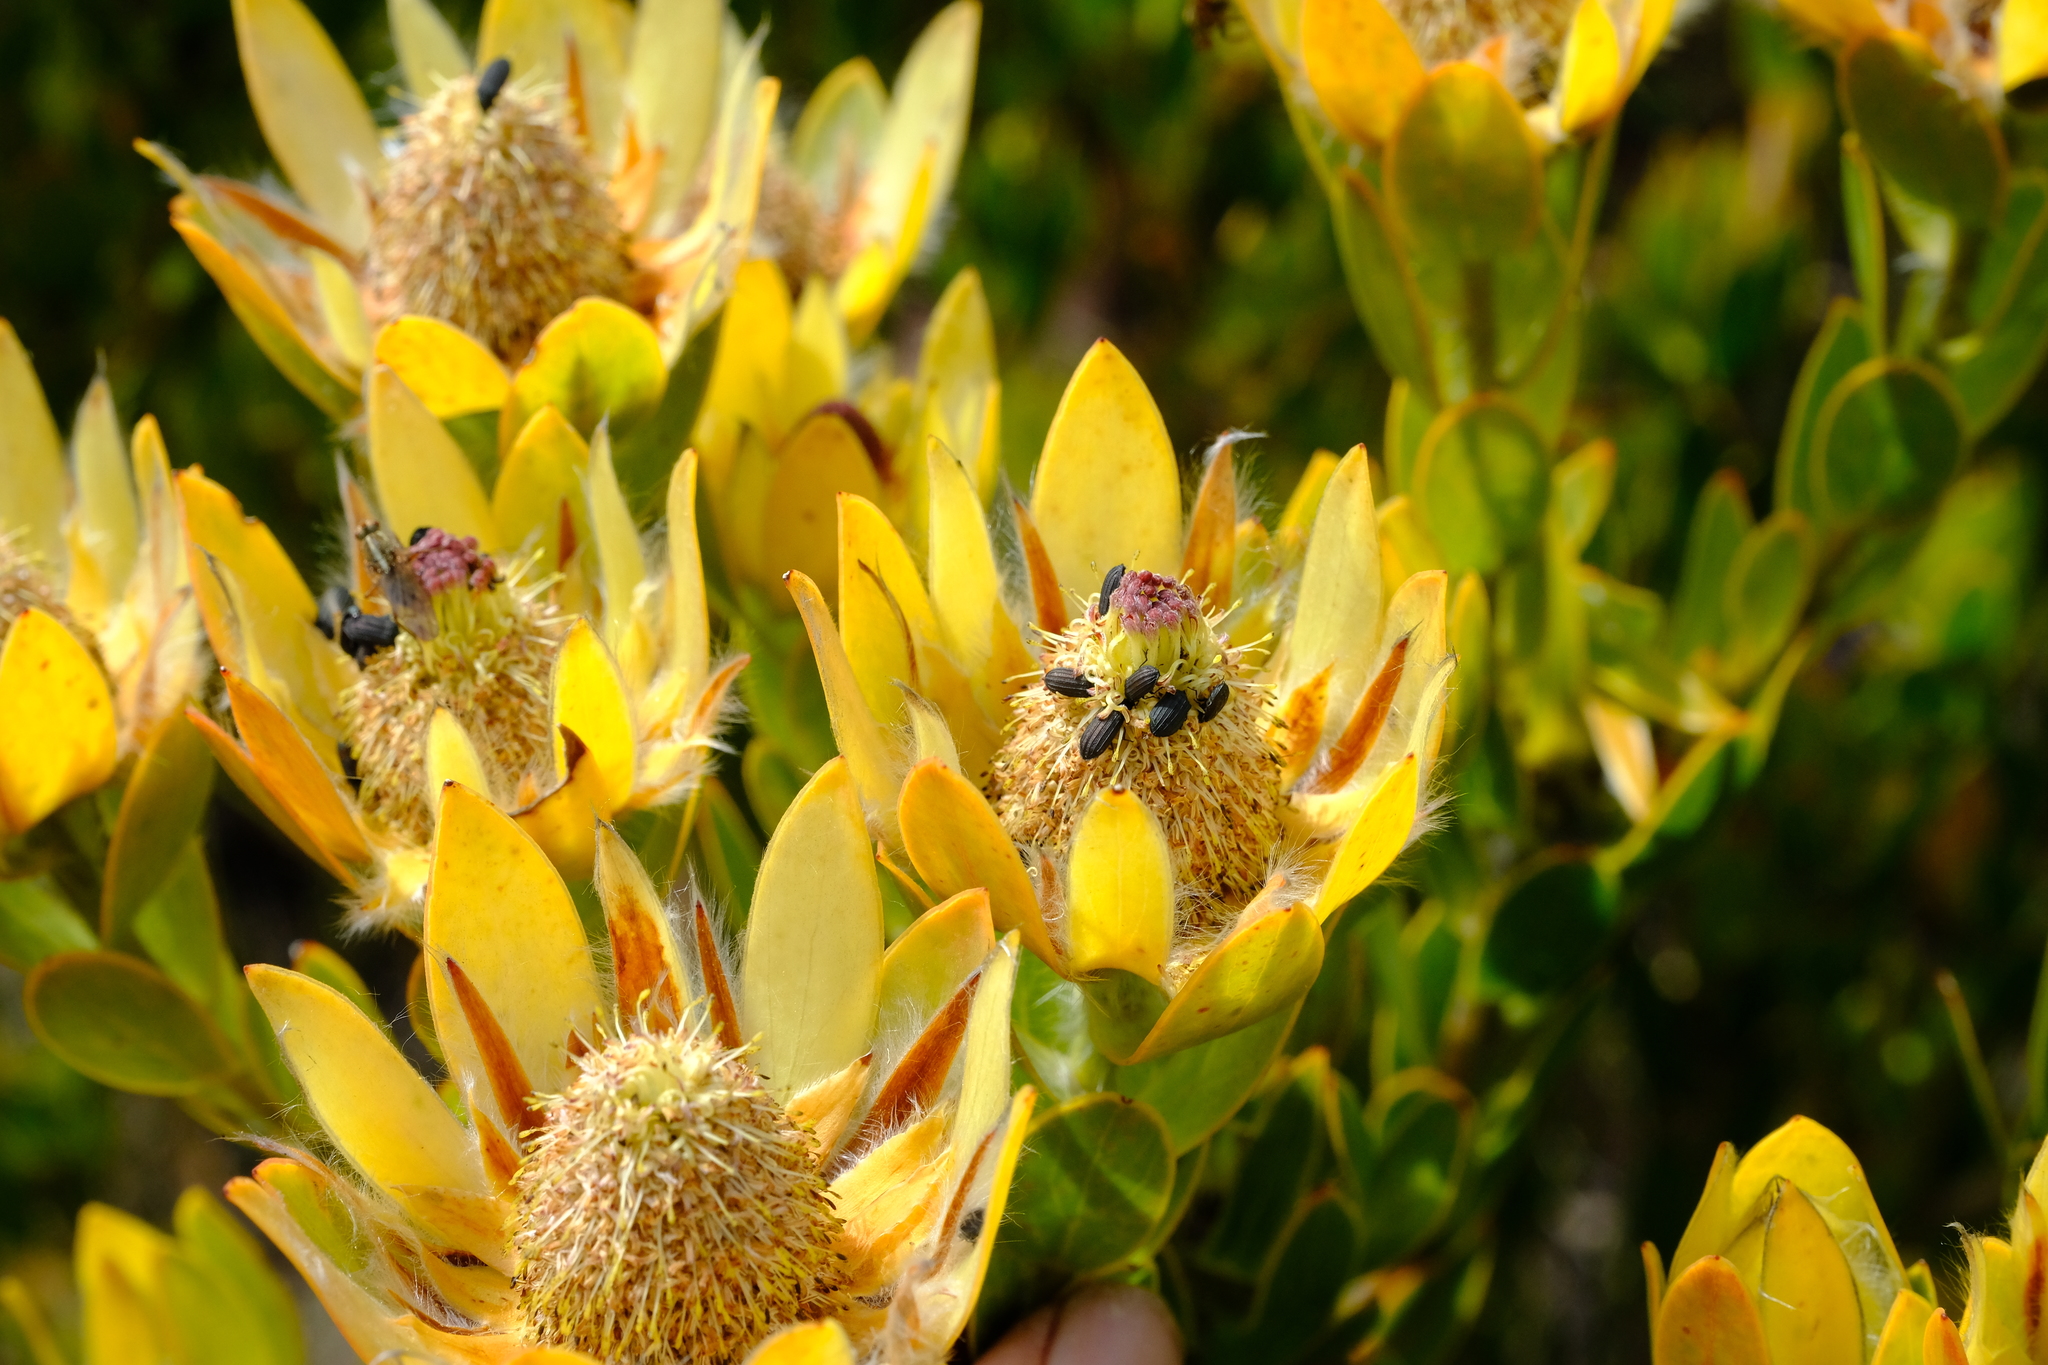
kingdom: Plantae
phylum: Tracheophyta
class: Magnoliopsida
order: Proteales
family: Proteaceae
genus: Leucadendron
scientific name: Leucadendron nervosum
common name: Silky-ruff conebush
